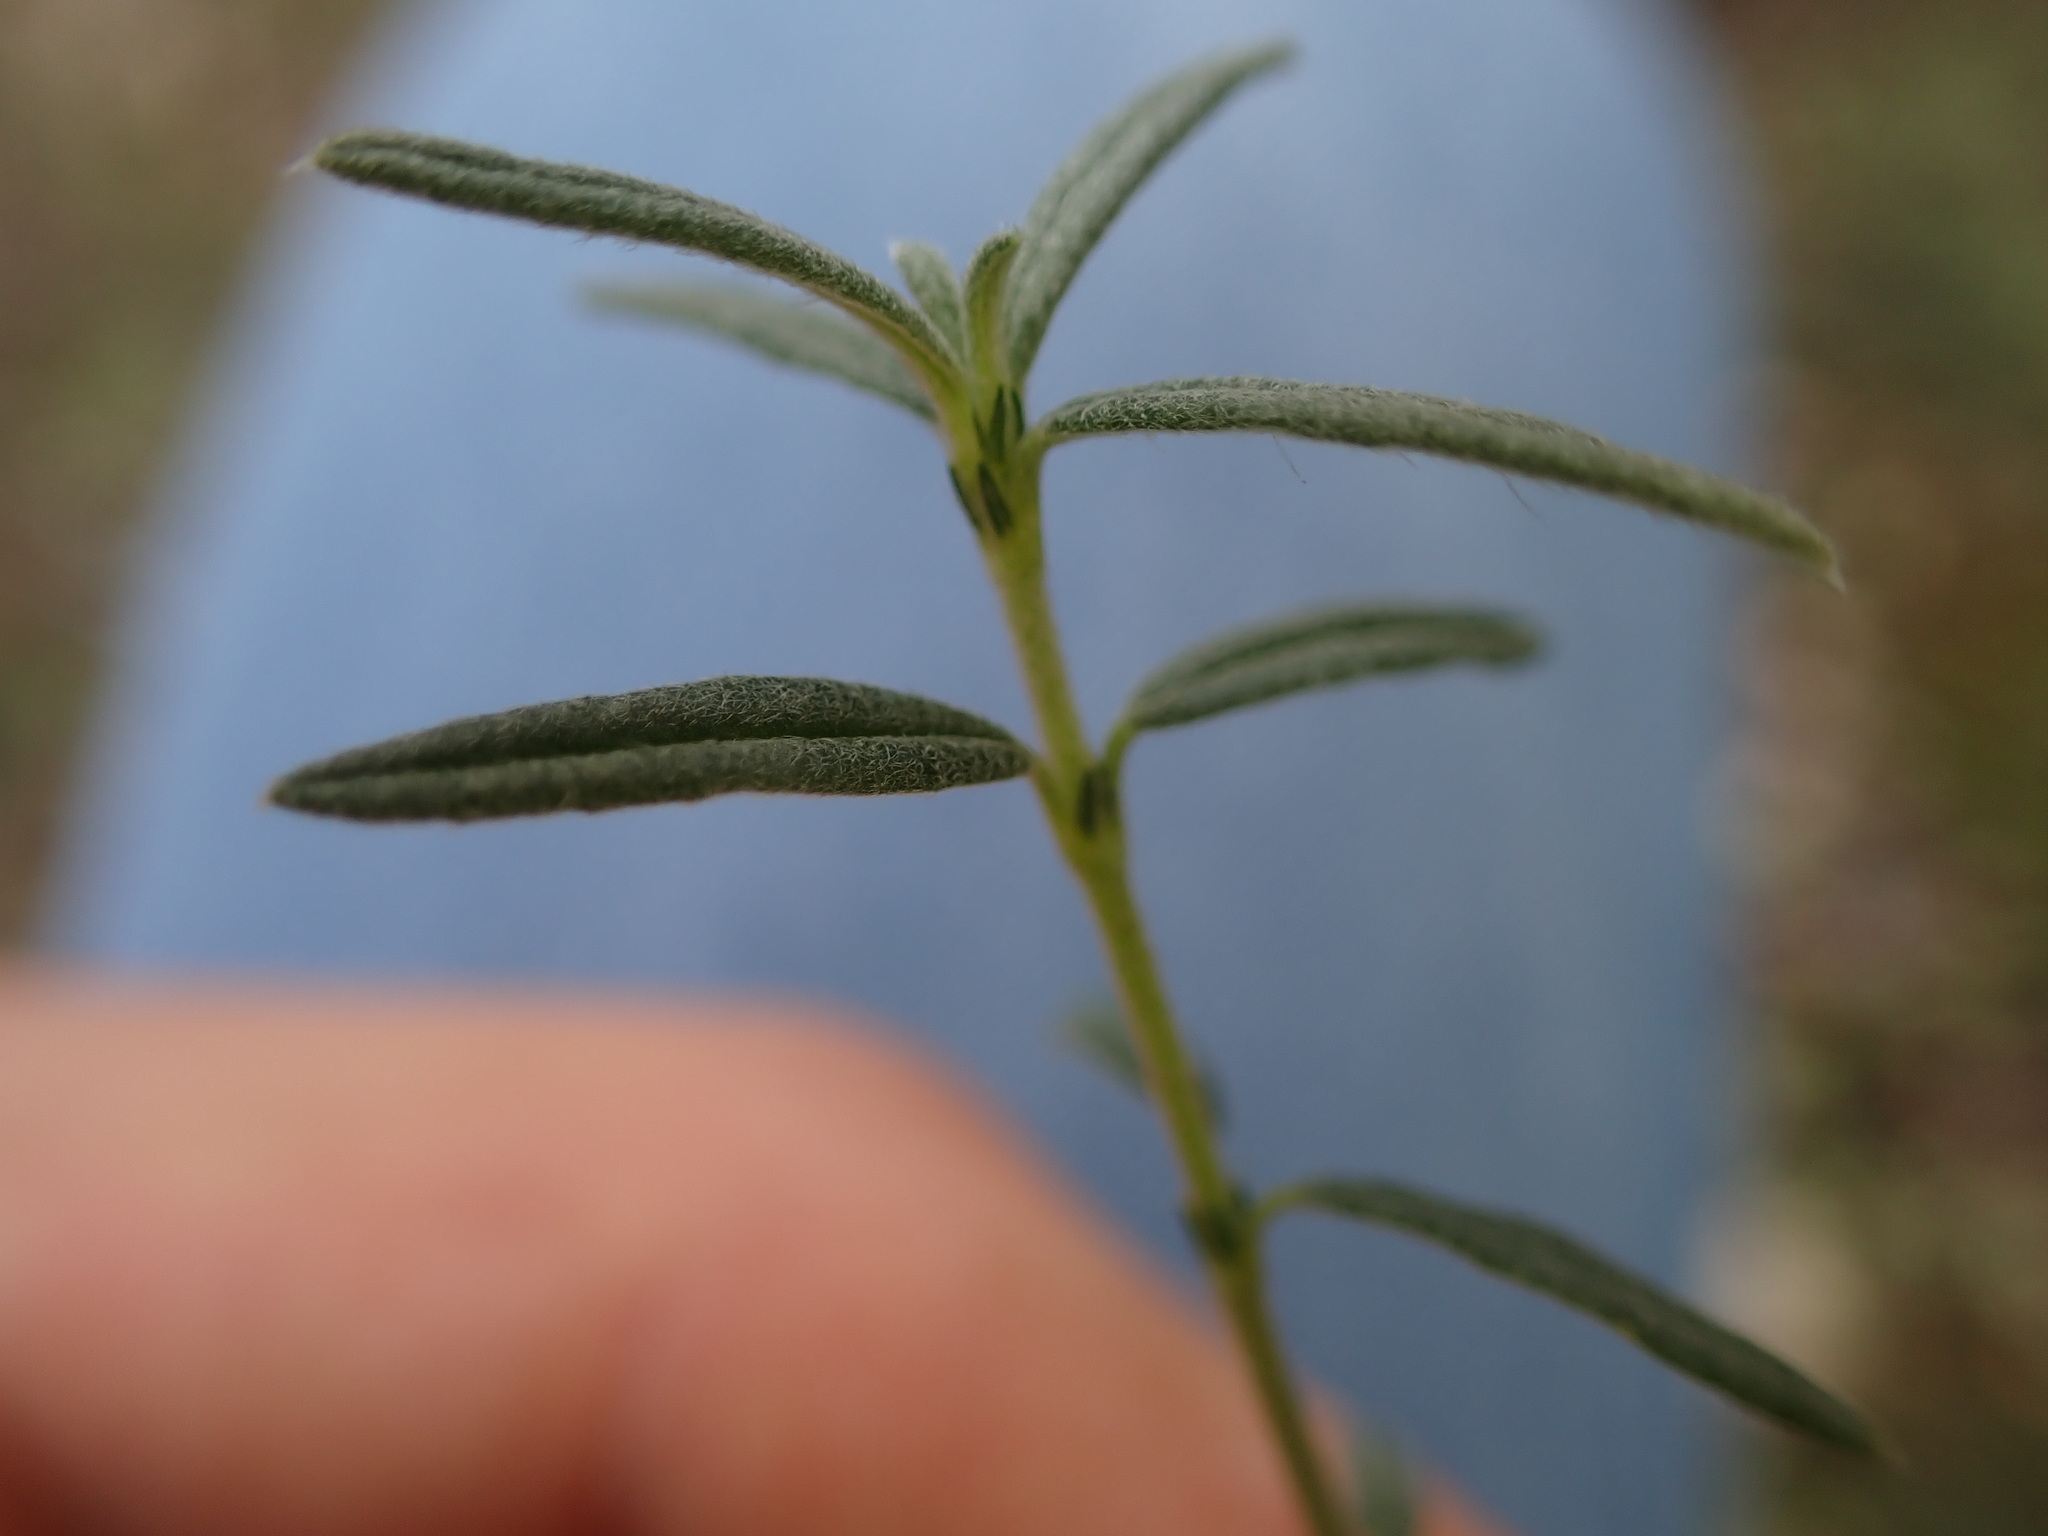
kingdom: Plantae
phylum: Tracheophyta
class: Magnoliopsida
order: Malvales
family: Cistaceae
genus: Helianthemum
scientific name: Helianthemum apenninum
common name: White rock-rose
